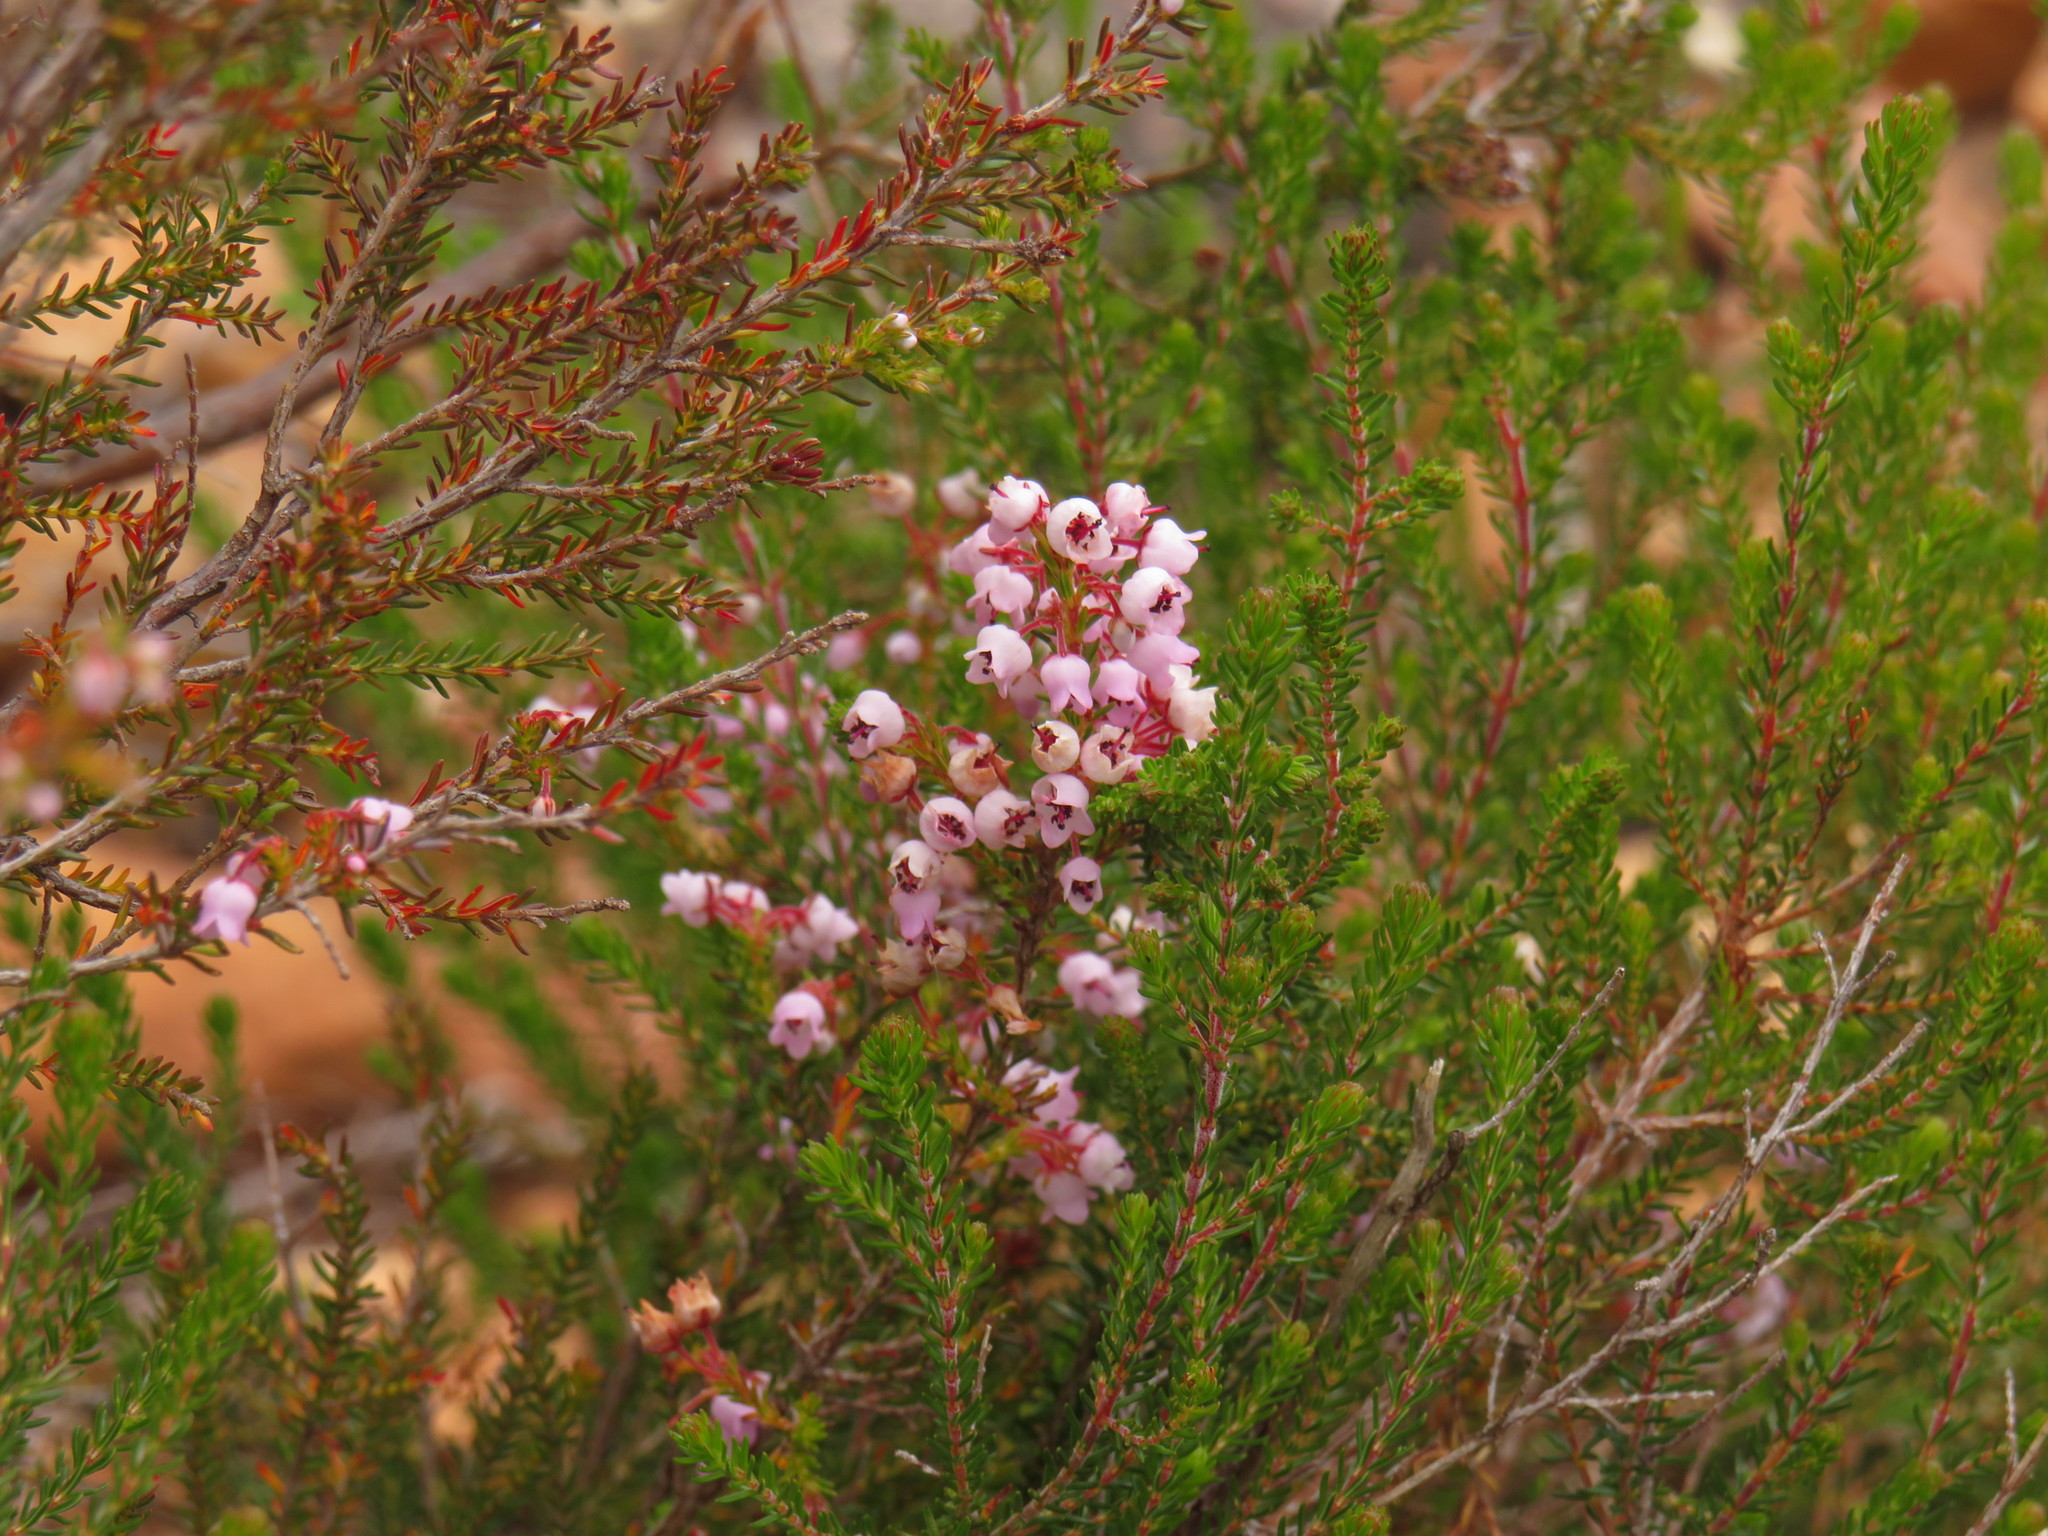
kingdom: Plantae
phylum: Tracheophyta
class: Magnoliopsida
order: Ericales
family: Ericaceae
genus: Erica
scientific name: Erica curvirostris
